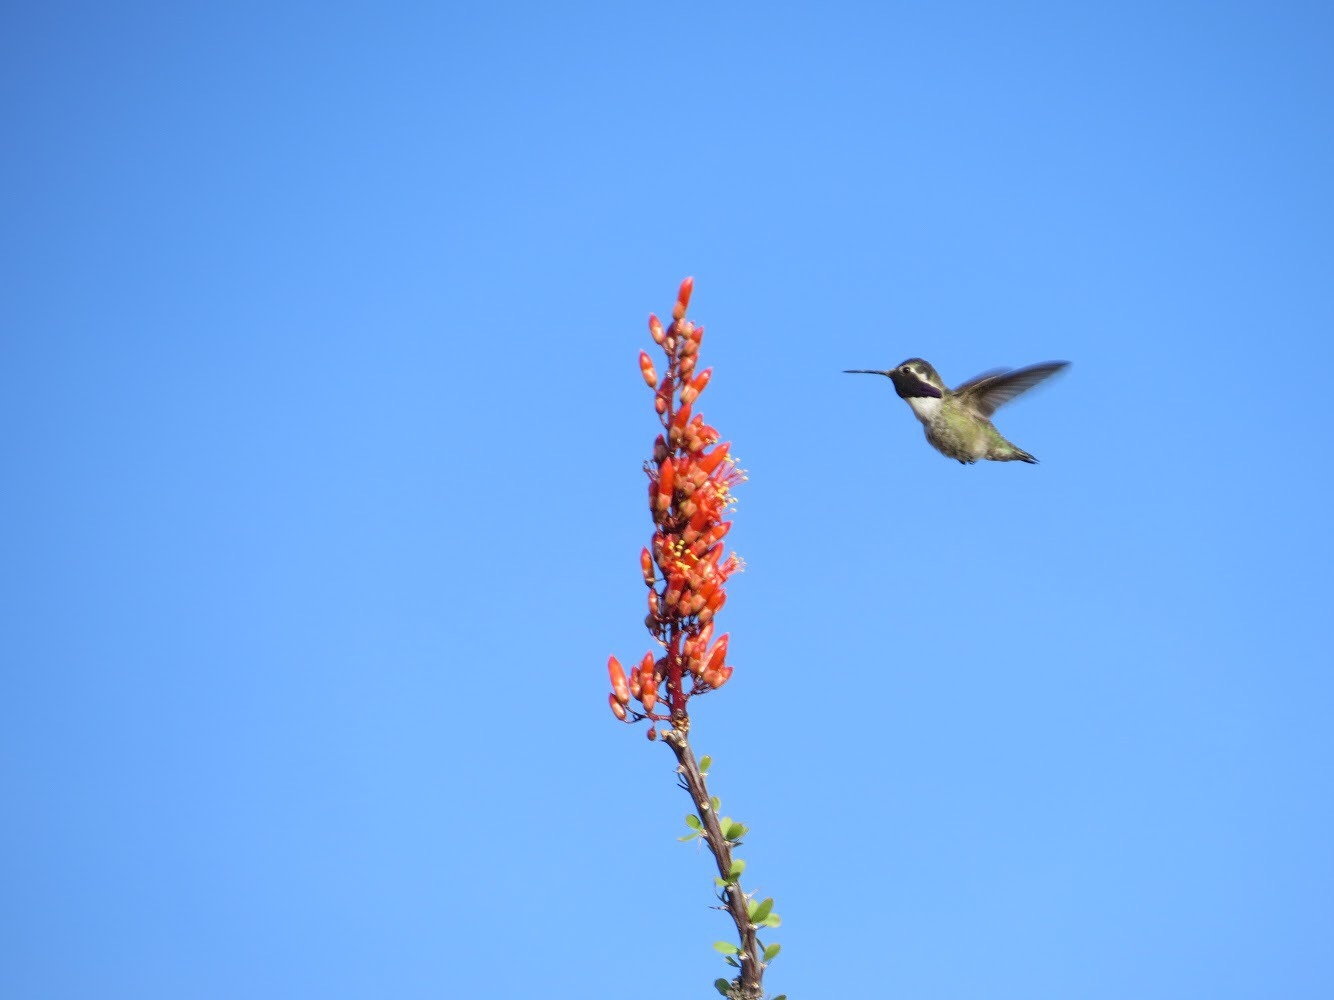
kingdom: Animalia
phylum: Chordata
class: Aves
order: Apodiformes
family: Trochilidae
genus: Calypte
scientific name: Calypte costae
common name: Costa's hummingbird
